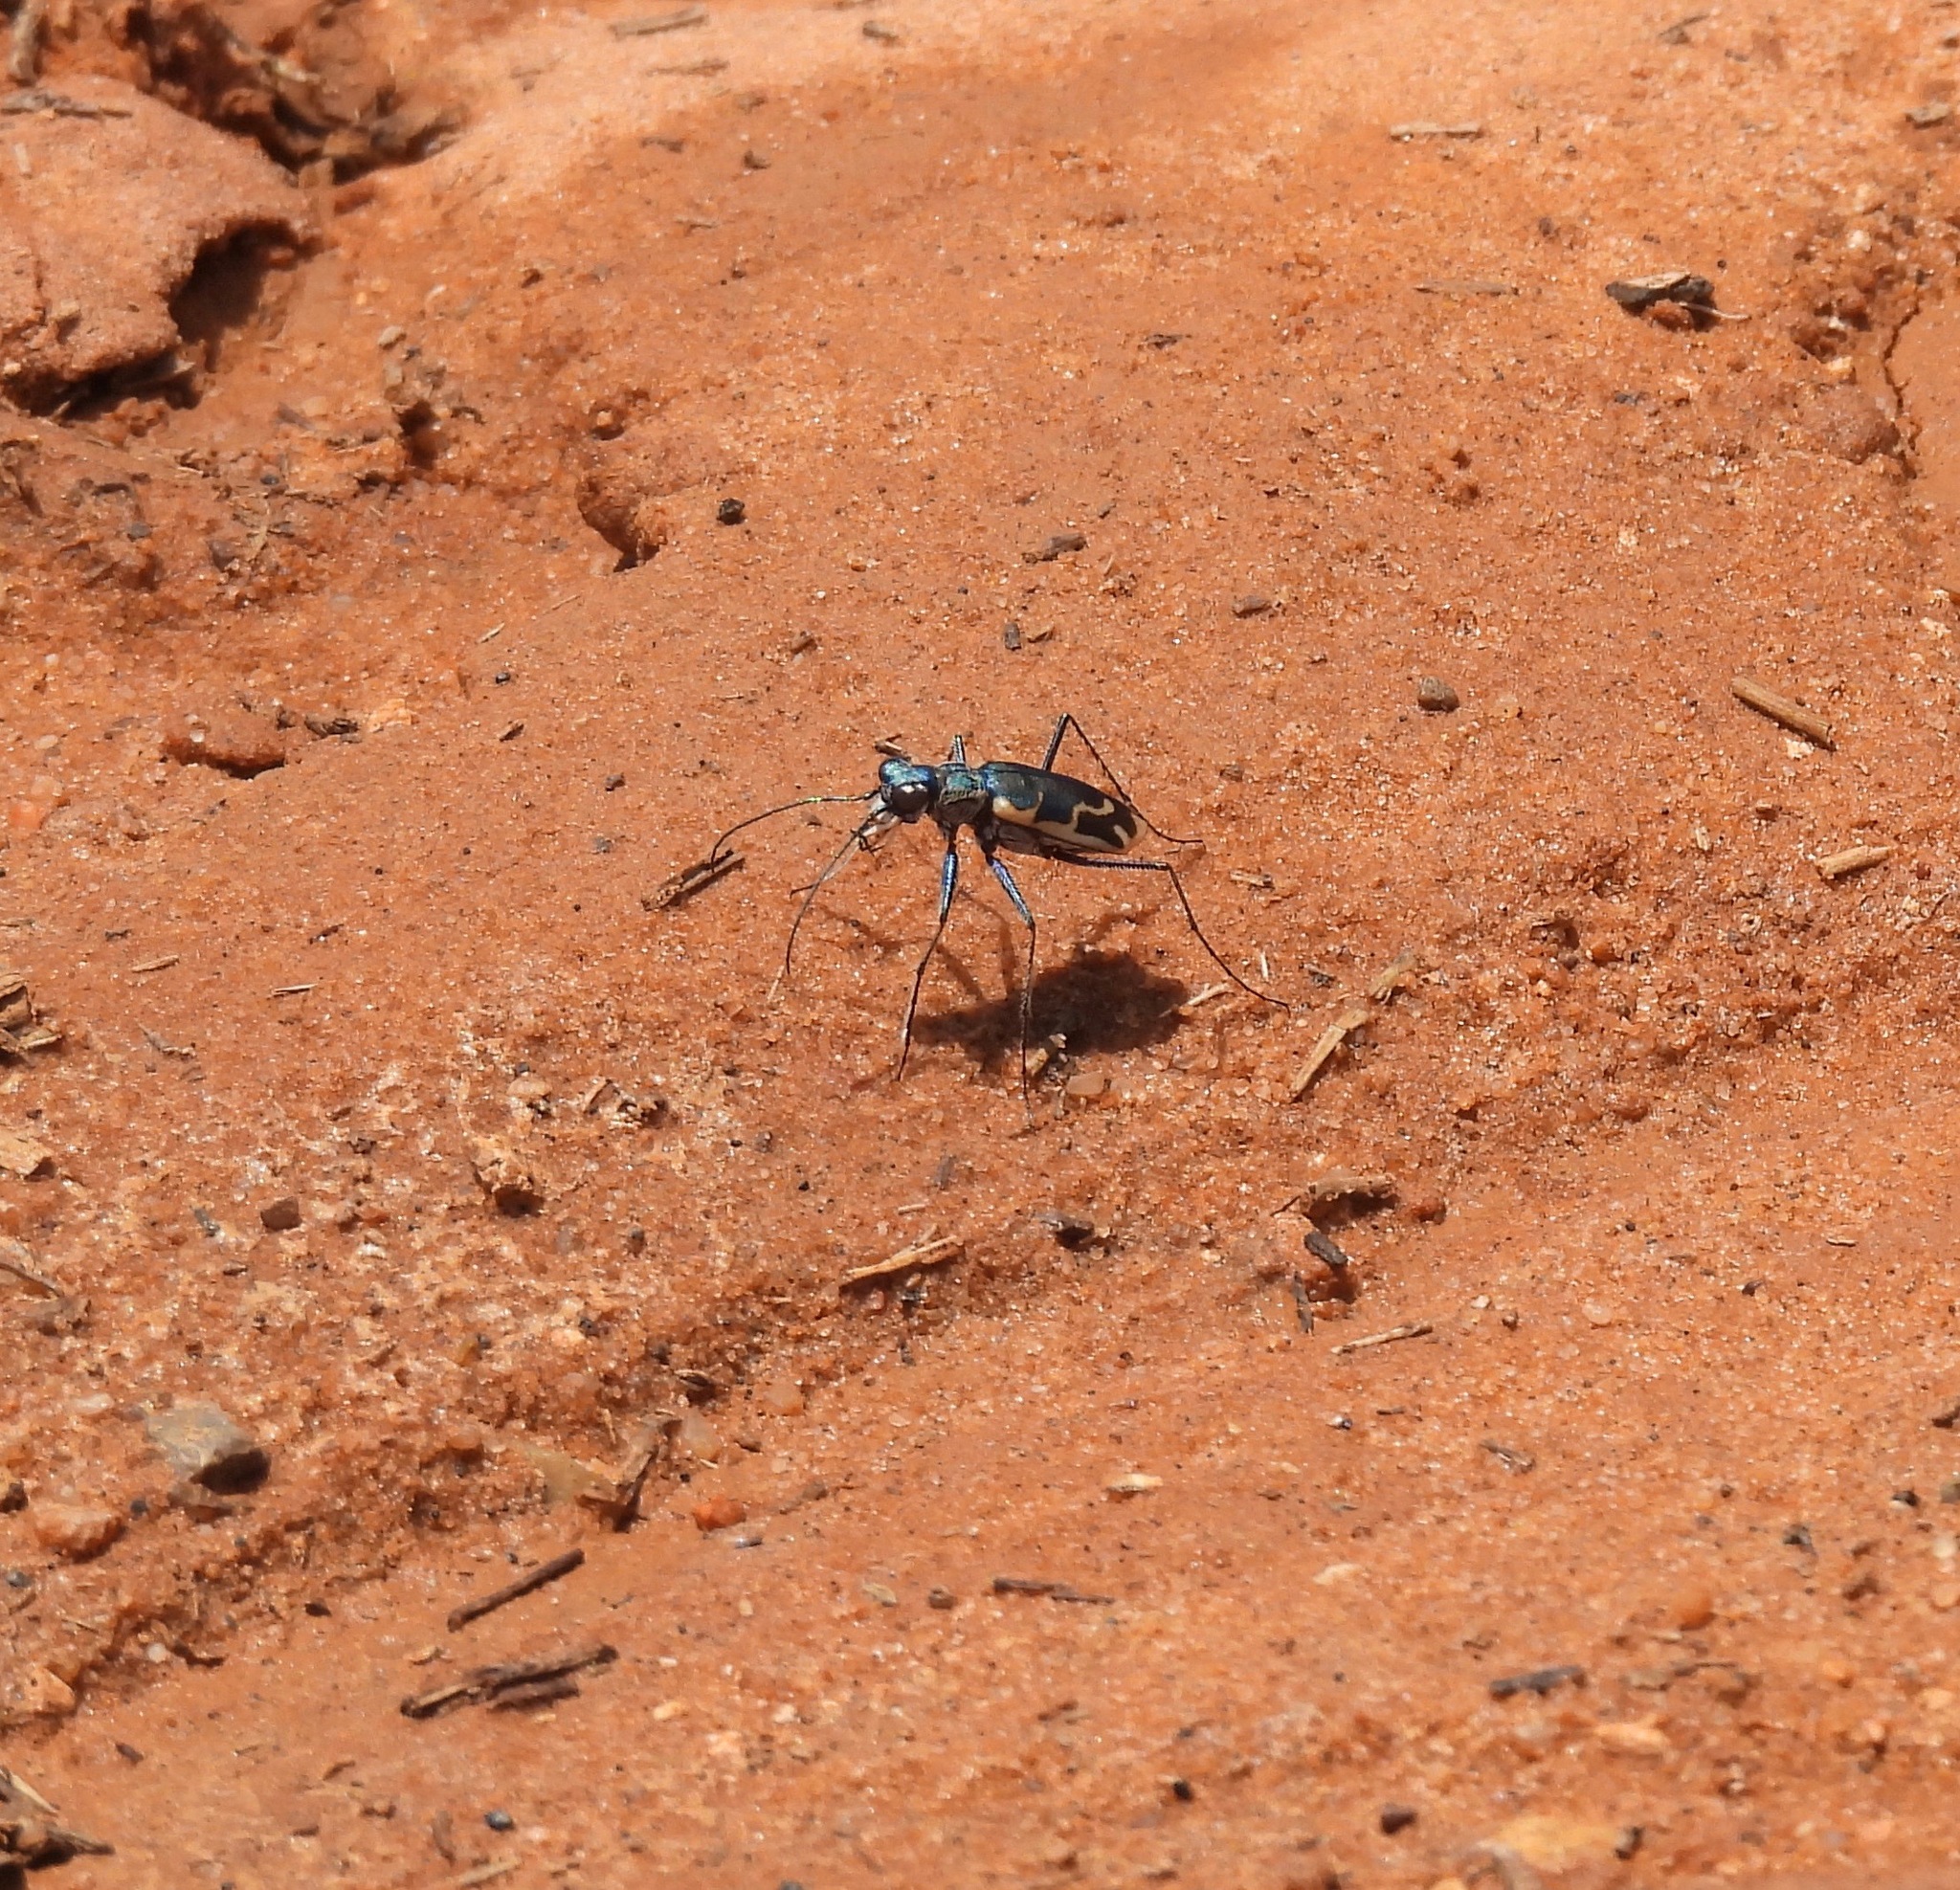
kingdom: Animalia
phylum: Arthropoda
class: Insecta
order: Coleoptera
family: Carabidae
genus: Ellipsoptera
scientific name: Ellipsoptera rubicunda
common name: Aridland tiger beetle
